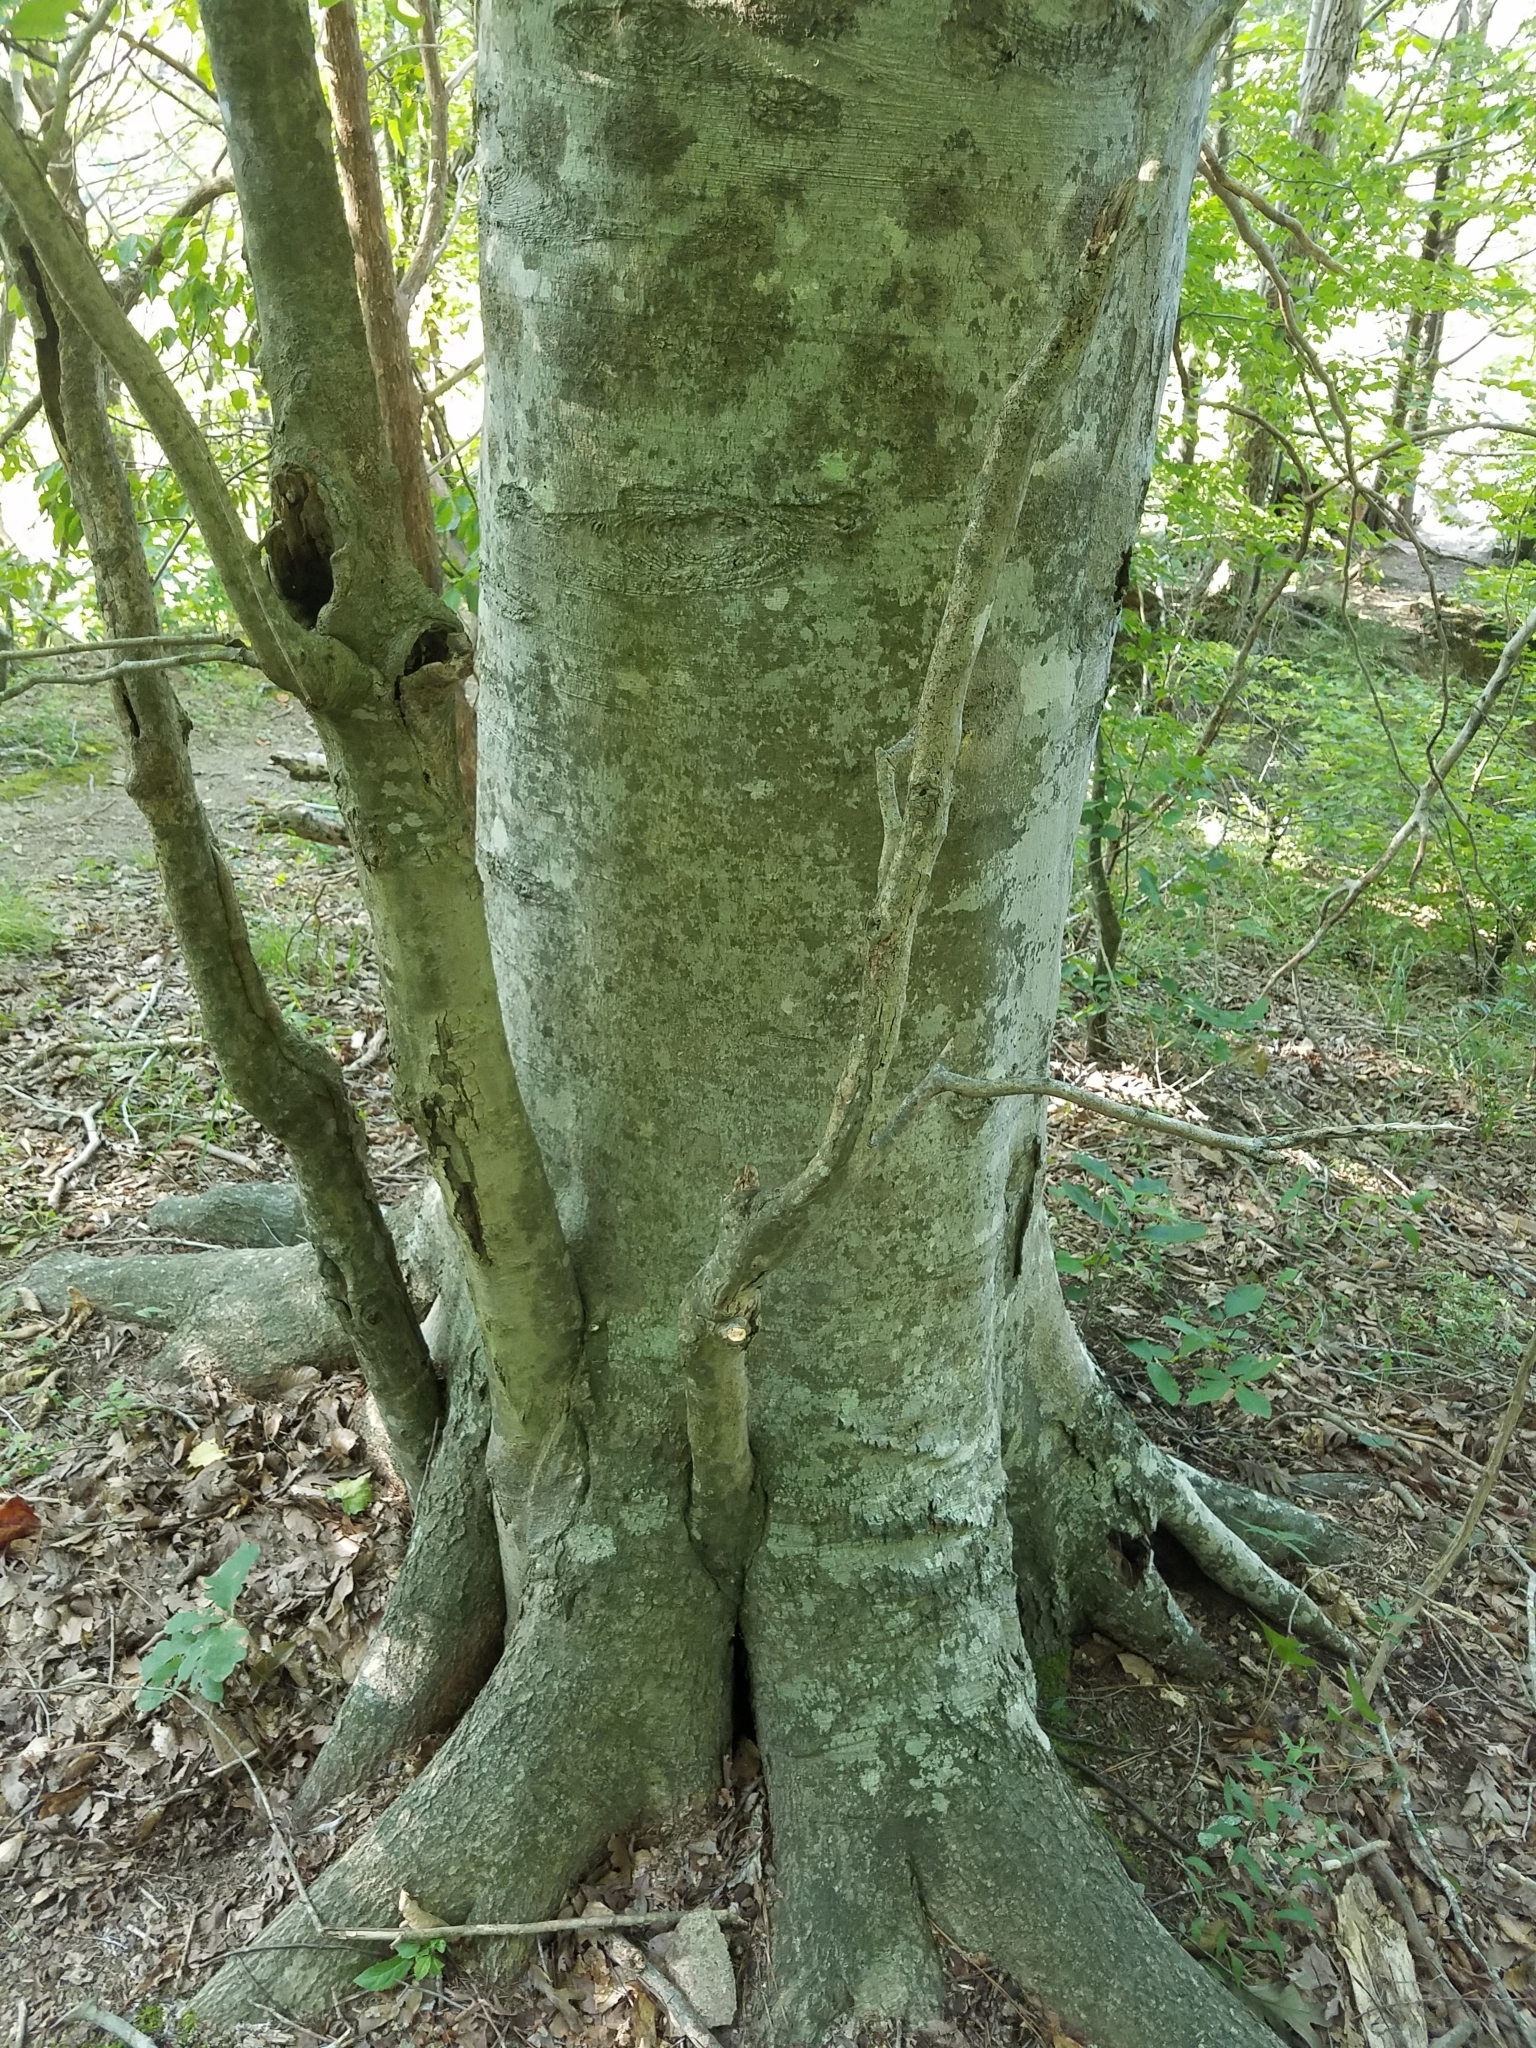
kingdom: Plantae
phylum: Tracheophyta
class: Magnoliopsida
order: Fagales
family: Fagaceae
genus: Fagus
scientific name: Fagus grandifolia
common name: American beech
